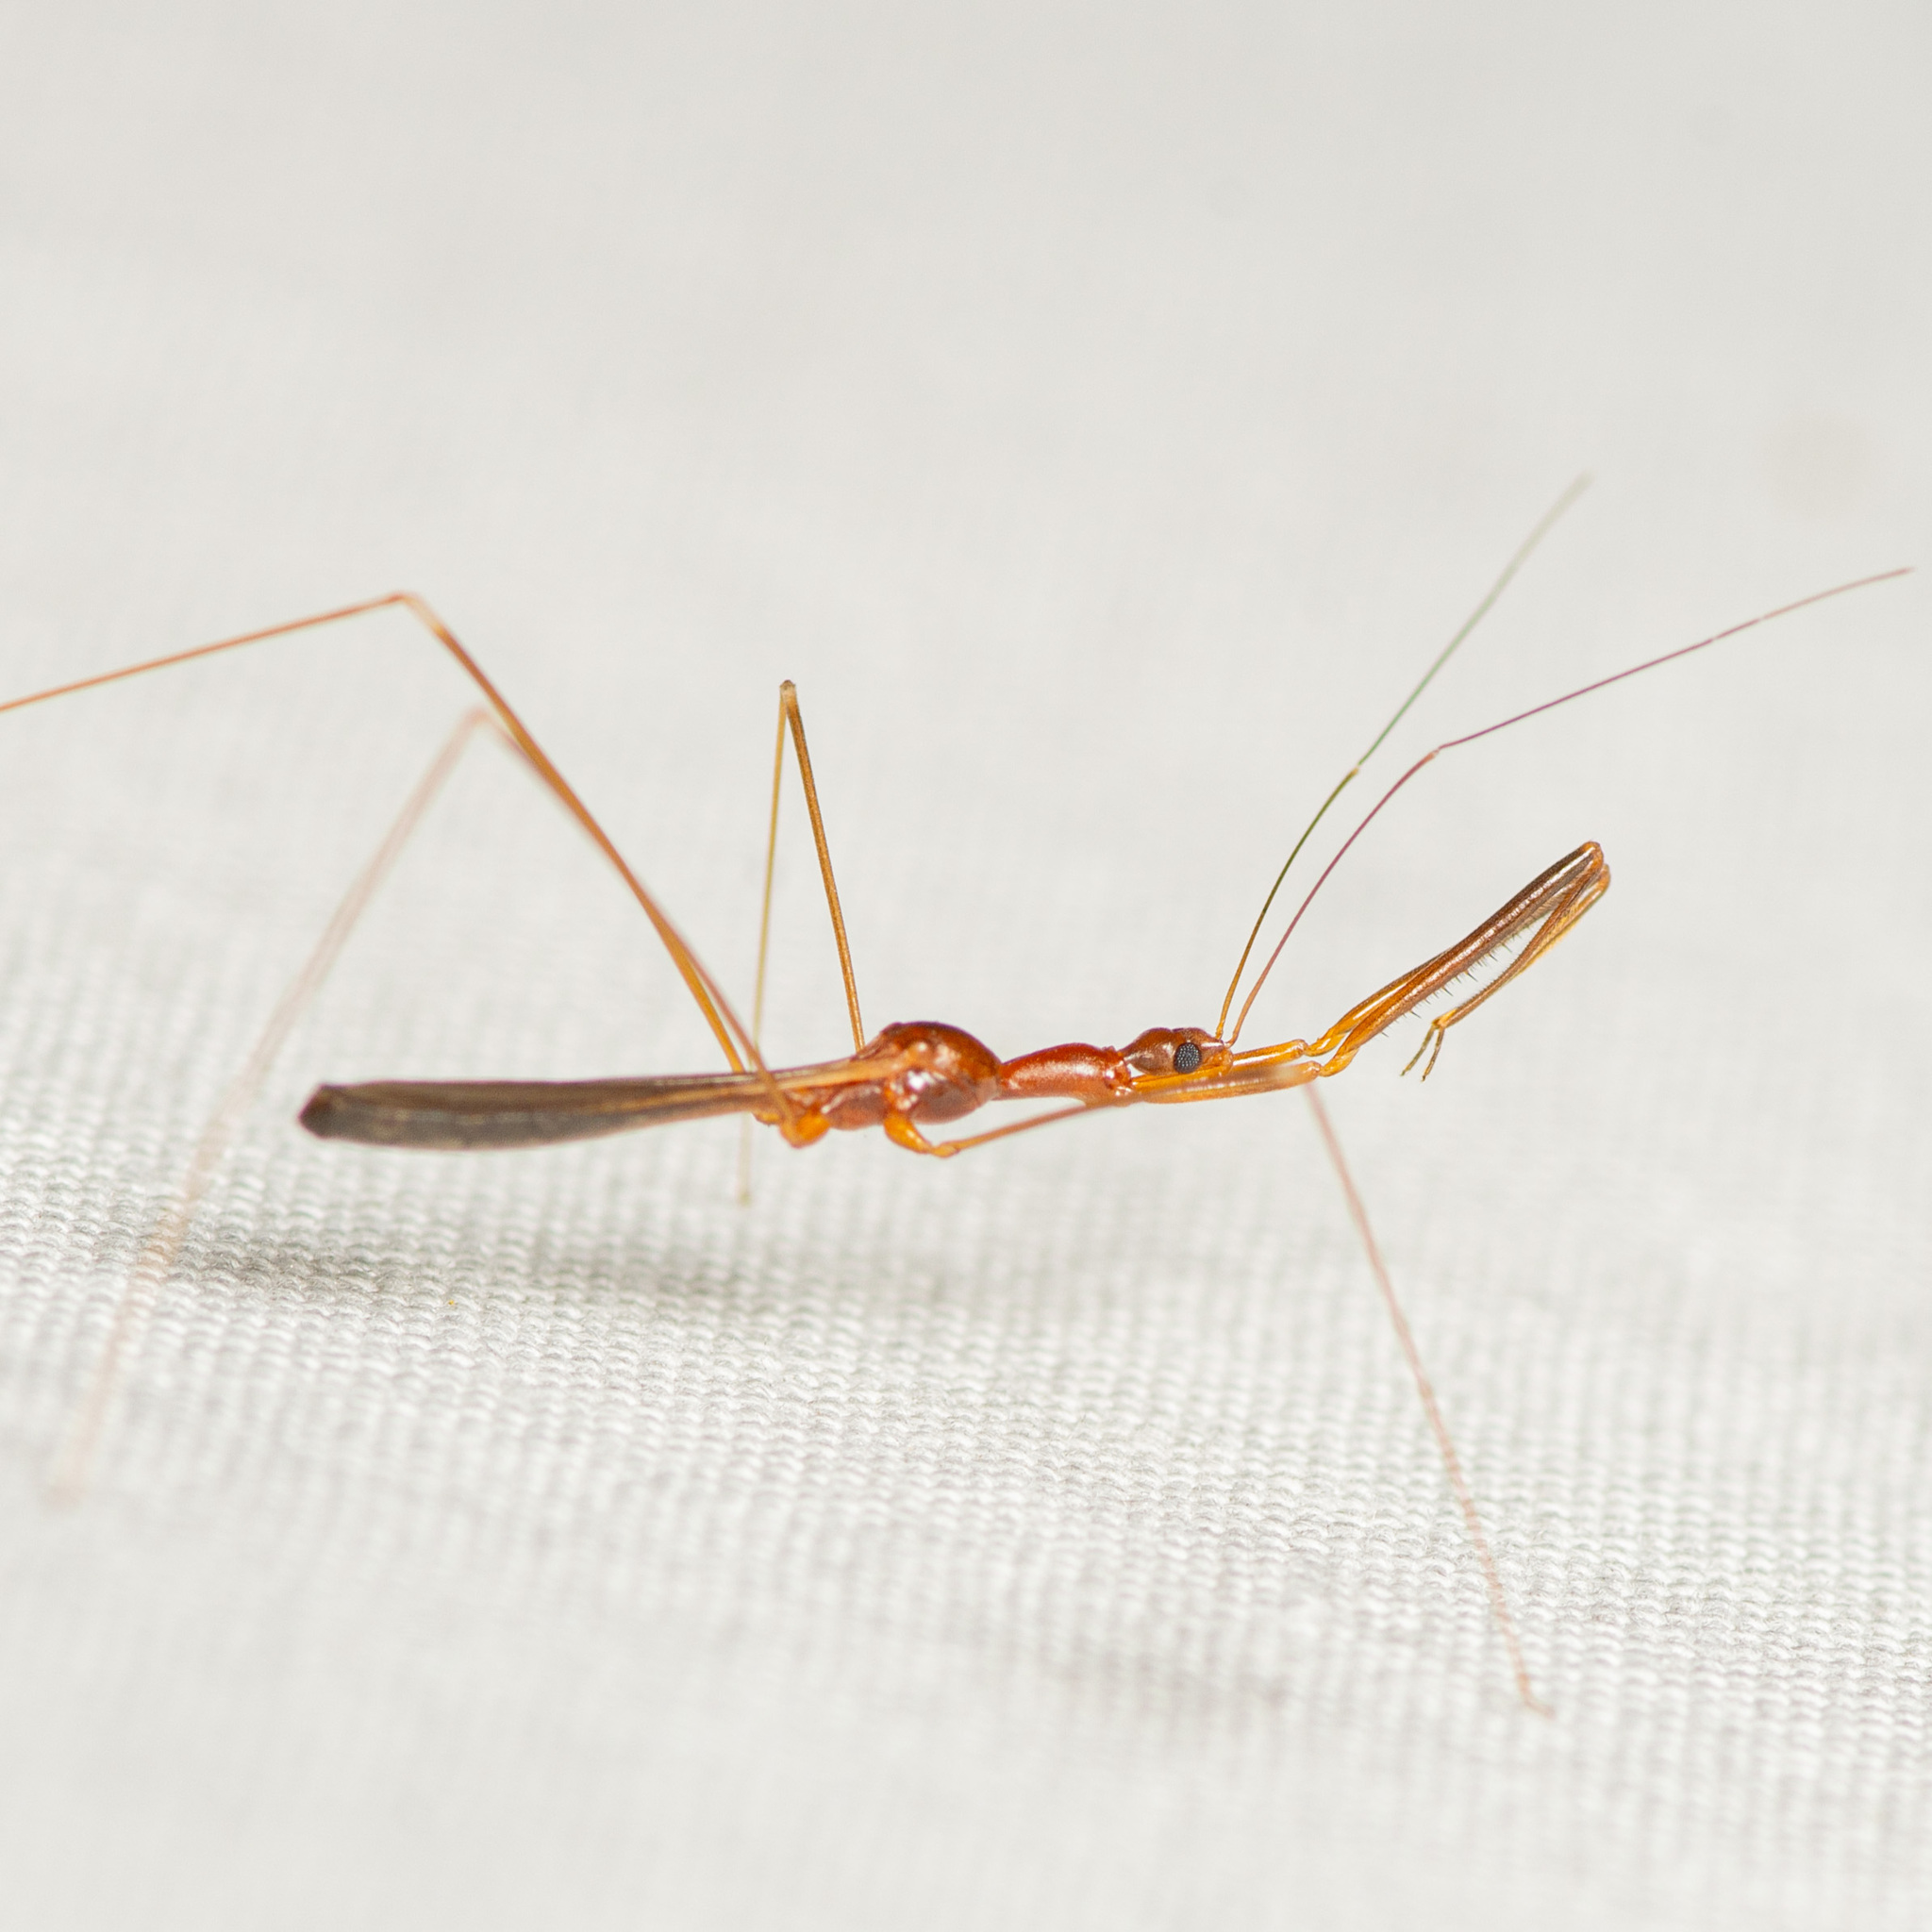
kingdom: Animalia
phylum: Arthropoda
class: Insecta
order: Hemiptera
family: Reduviidae
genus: Gardena
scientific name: Gardena elkinsi
